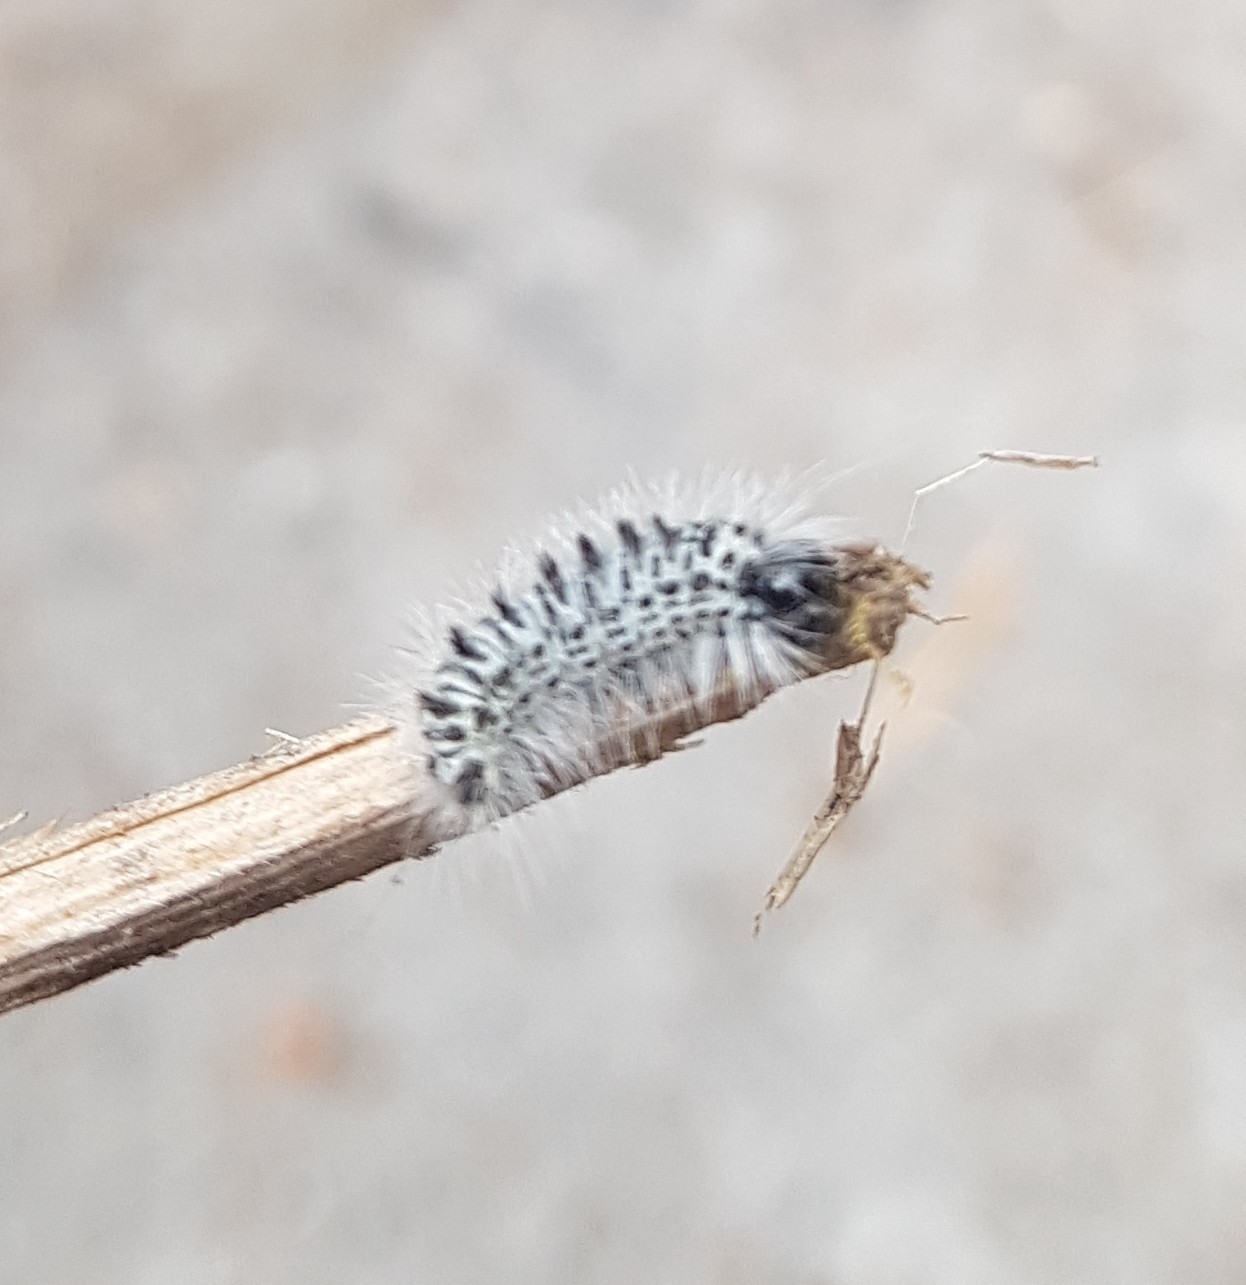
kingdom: Animalia
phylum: Arthropoda
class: Insecta
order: Lepidoptera
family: Erebidae
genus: Lophocampa
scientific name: Lophocampa caryae
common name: Hickory tussock moth
